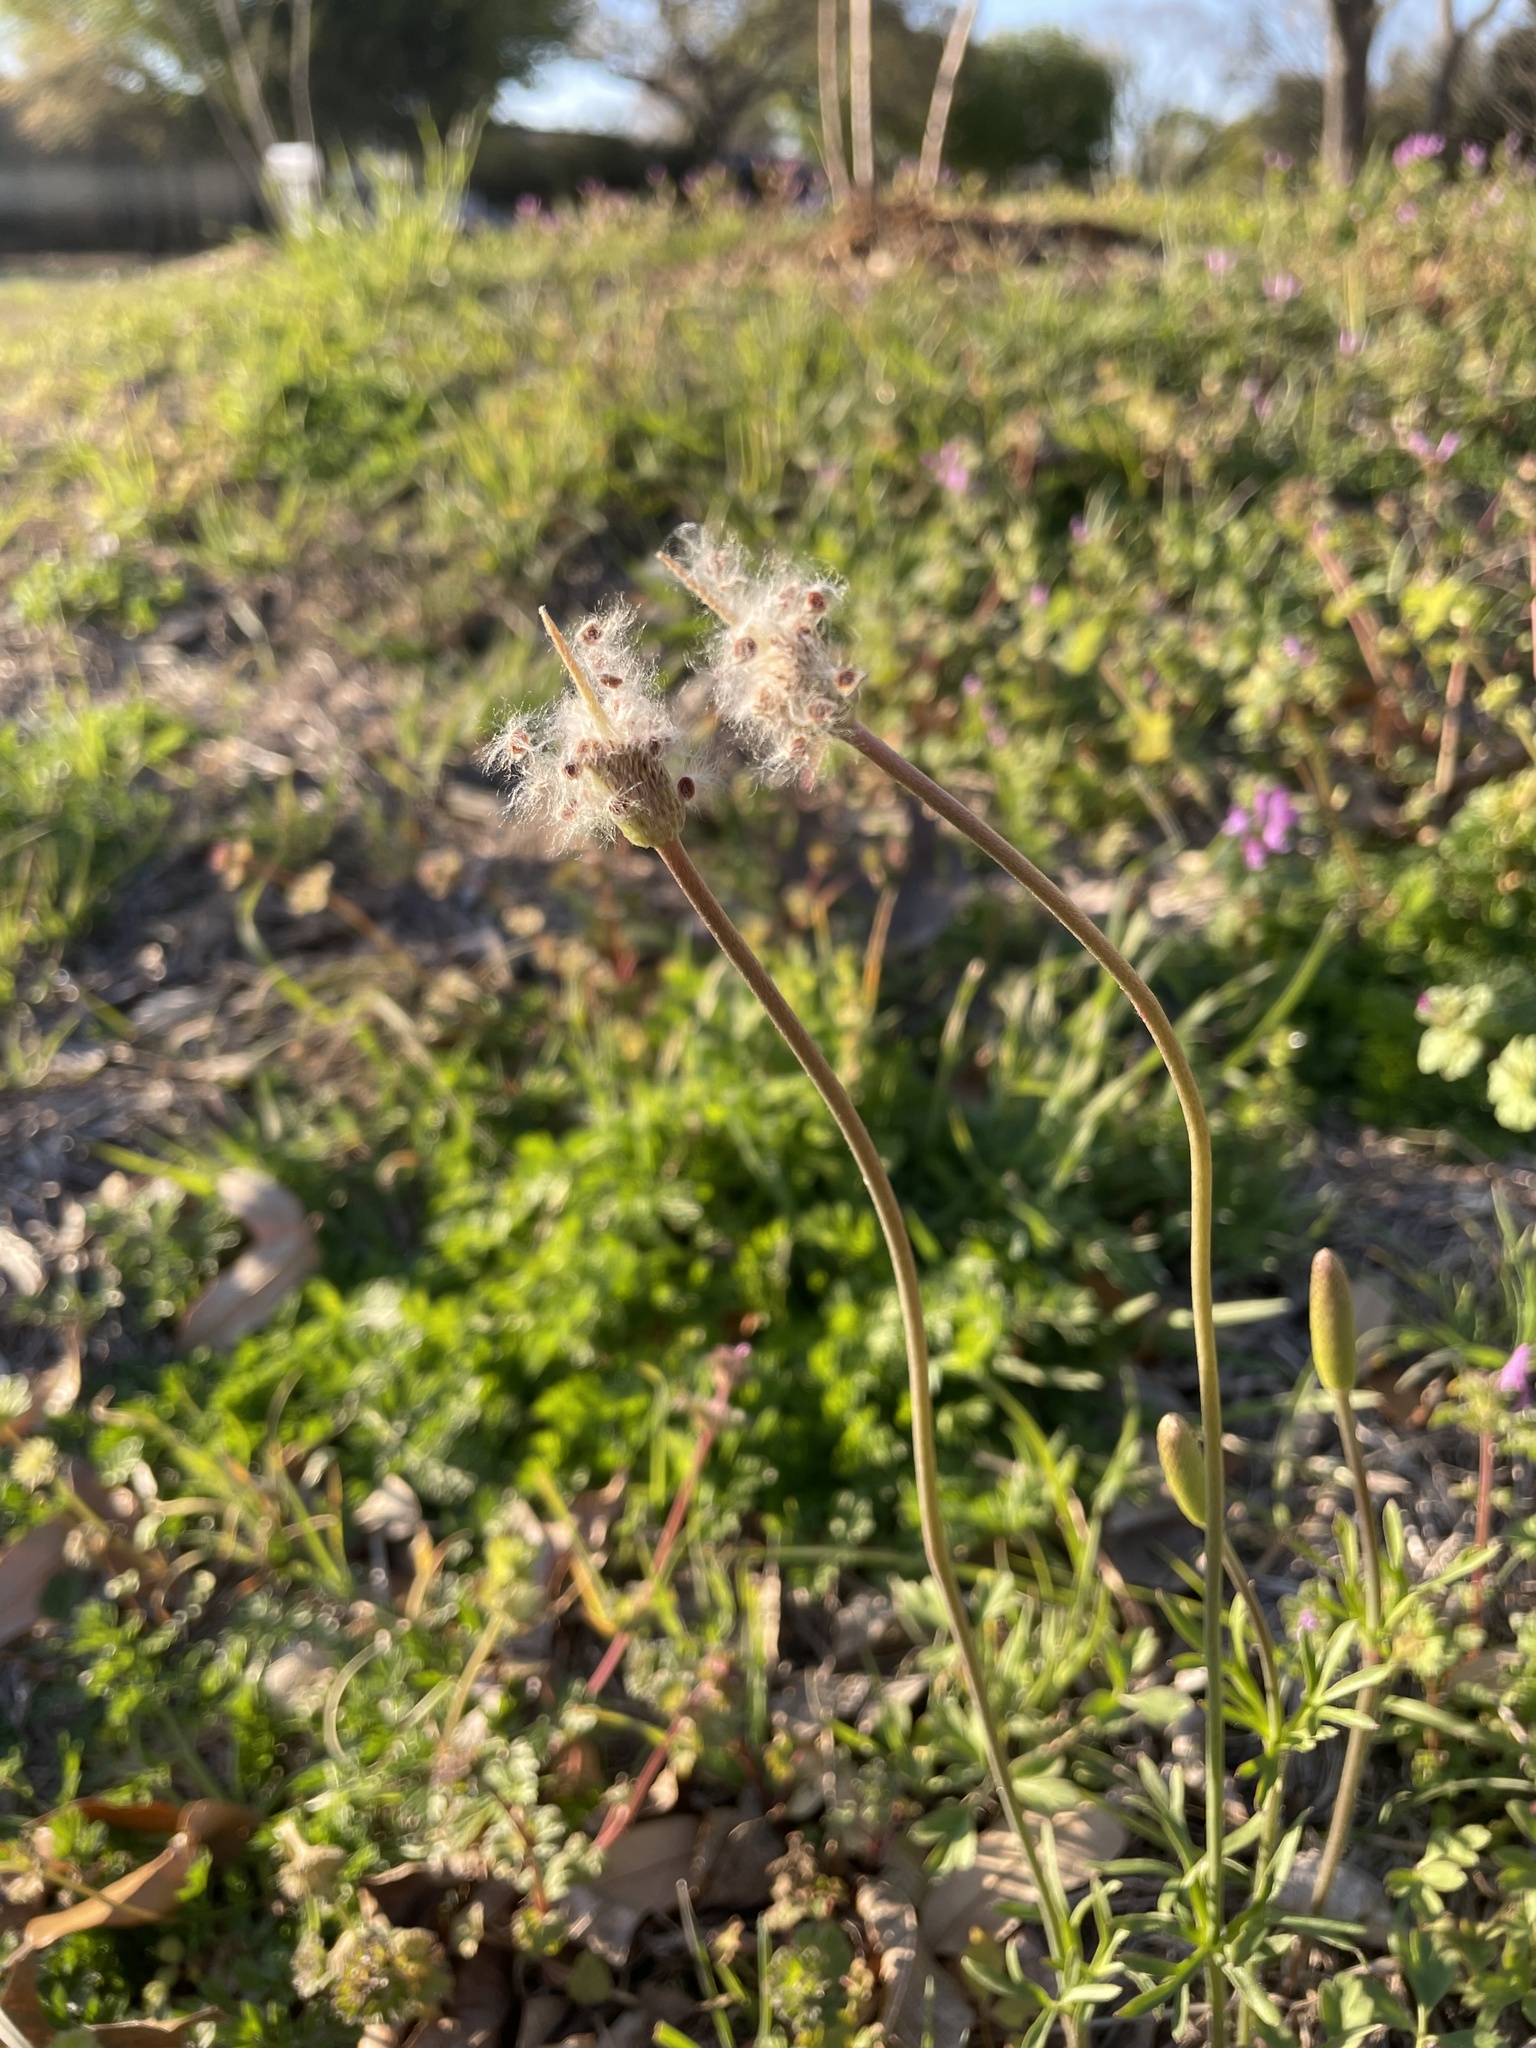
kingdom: Plantae
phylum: Tracheophyta
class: Magnoliopsida
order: Ranunculales
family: Ranunculaceae
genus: Anemone
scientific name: Anemone berlandieri
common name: Ten-petal anemone
